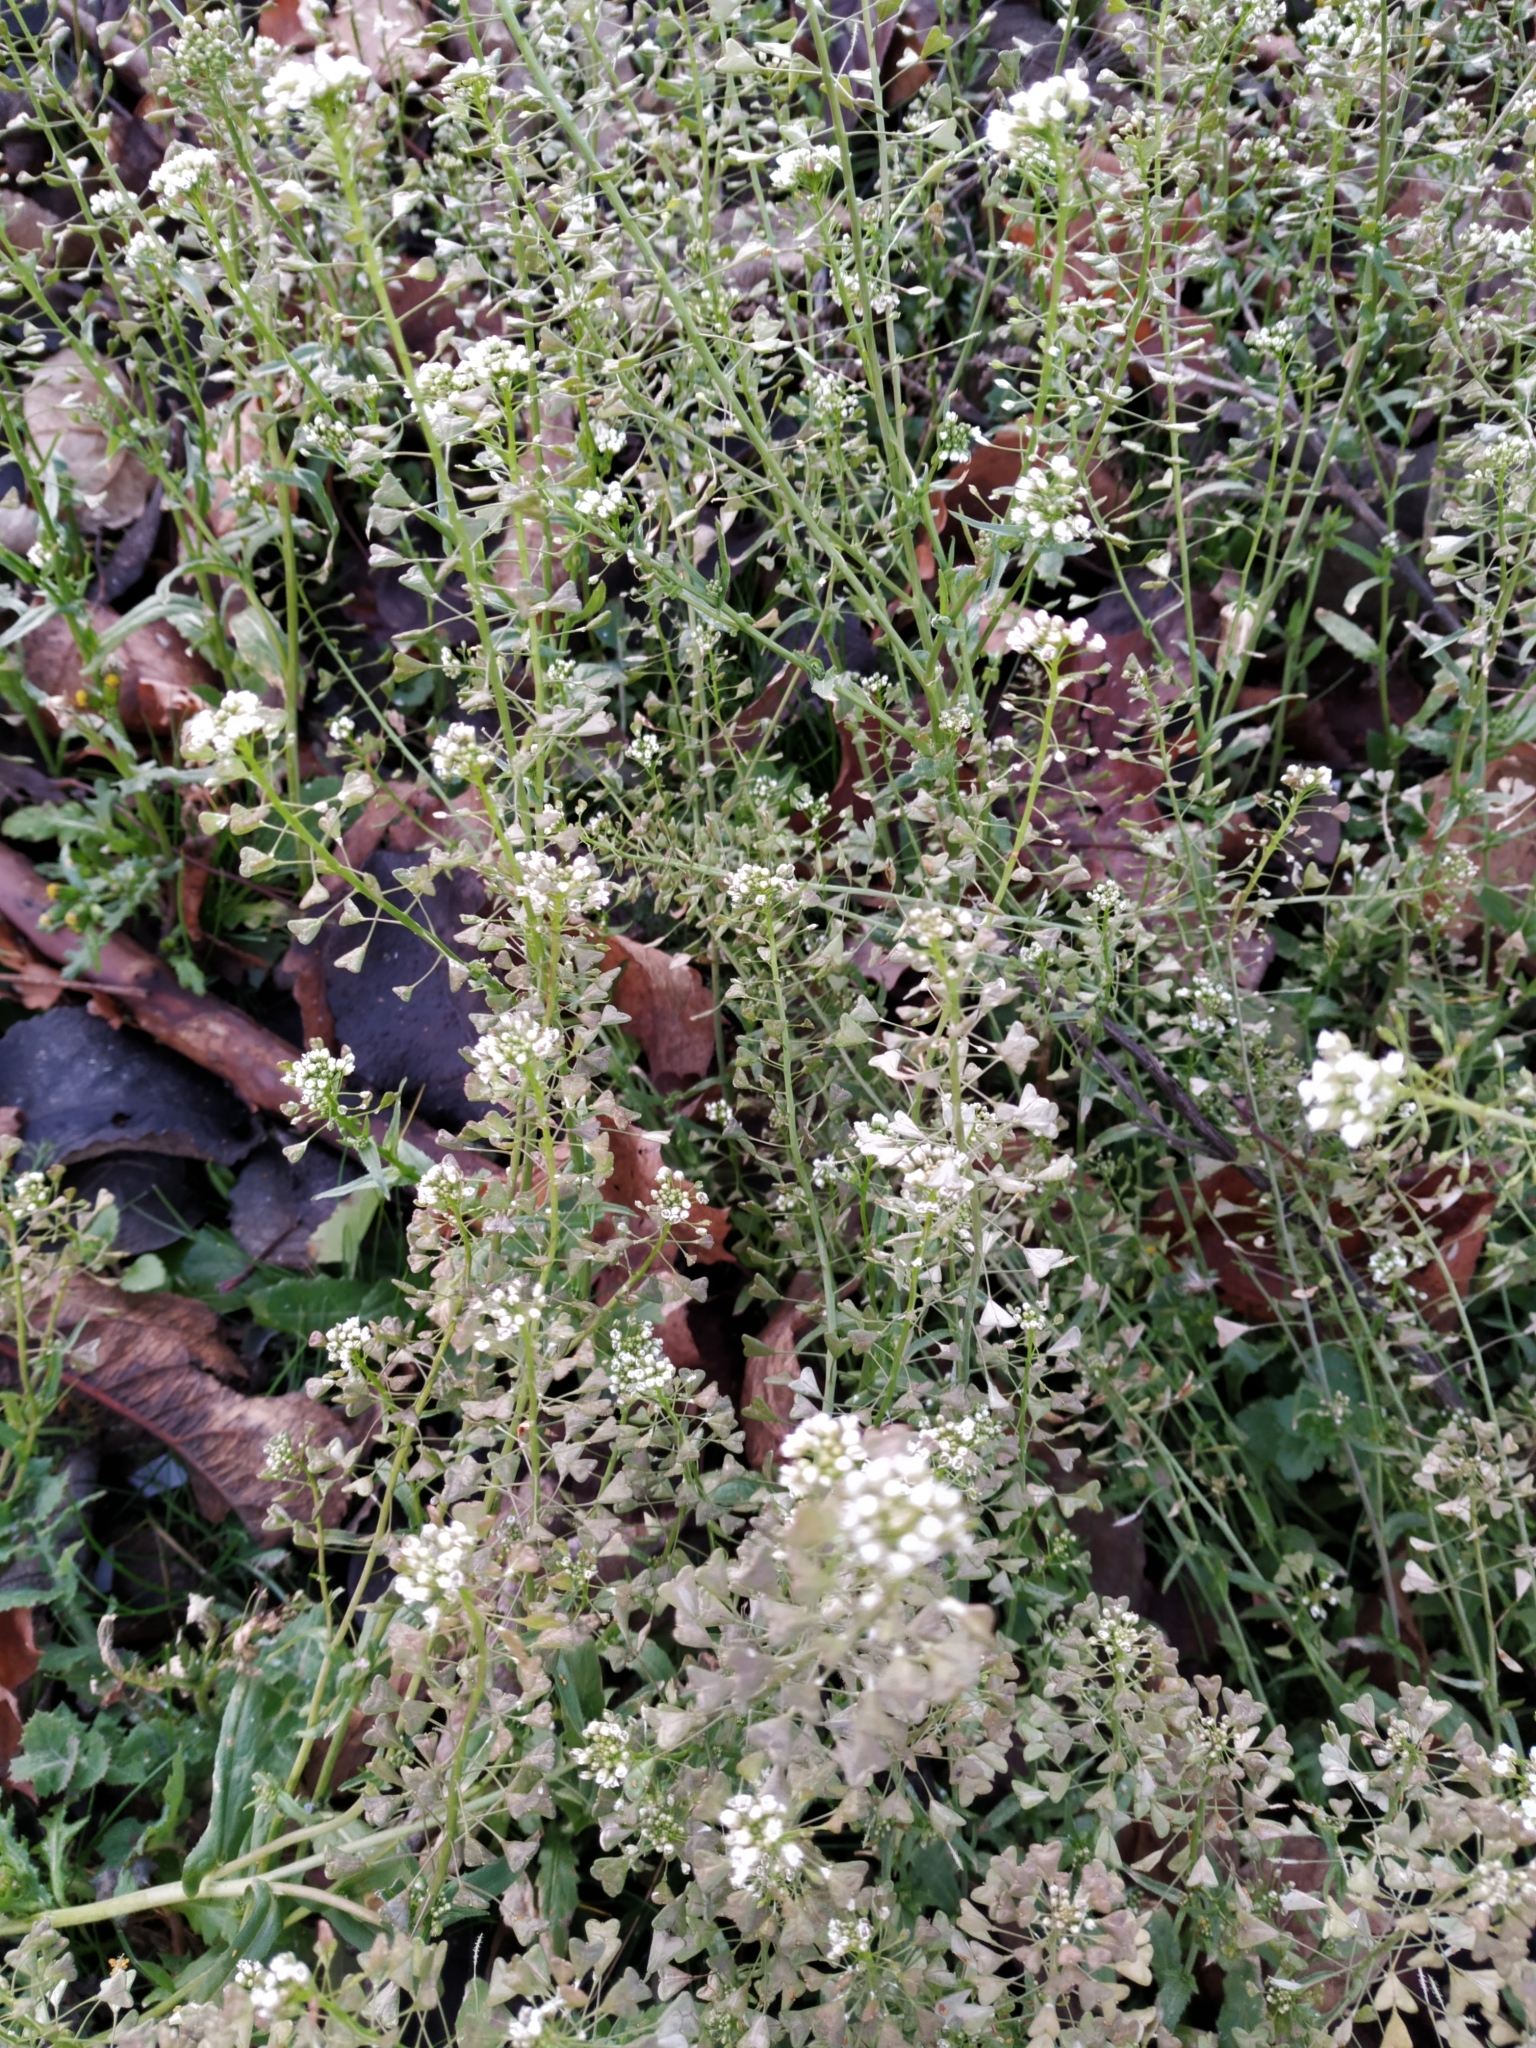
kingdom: Plantae
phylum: Tracheophyta
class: Magnoliopsida
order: Brassicales
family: Brassicaceae
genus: Capsella
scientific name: Capsella bursa-pastoris
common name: Shepherd's purse
